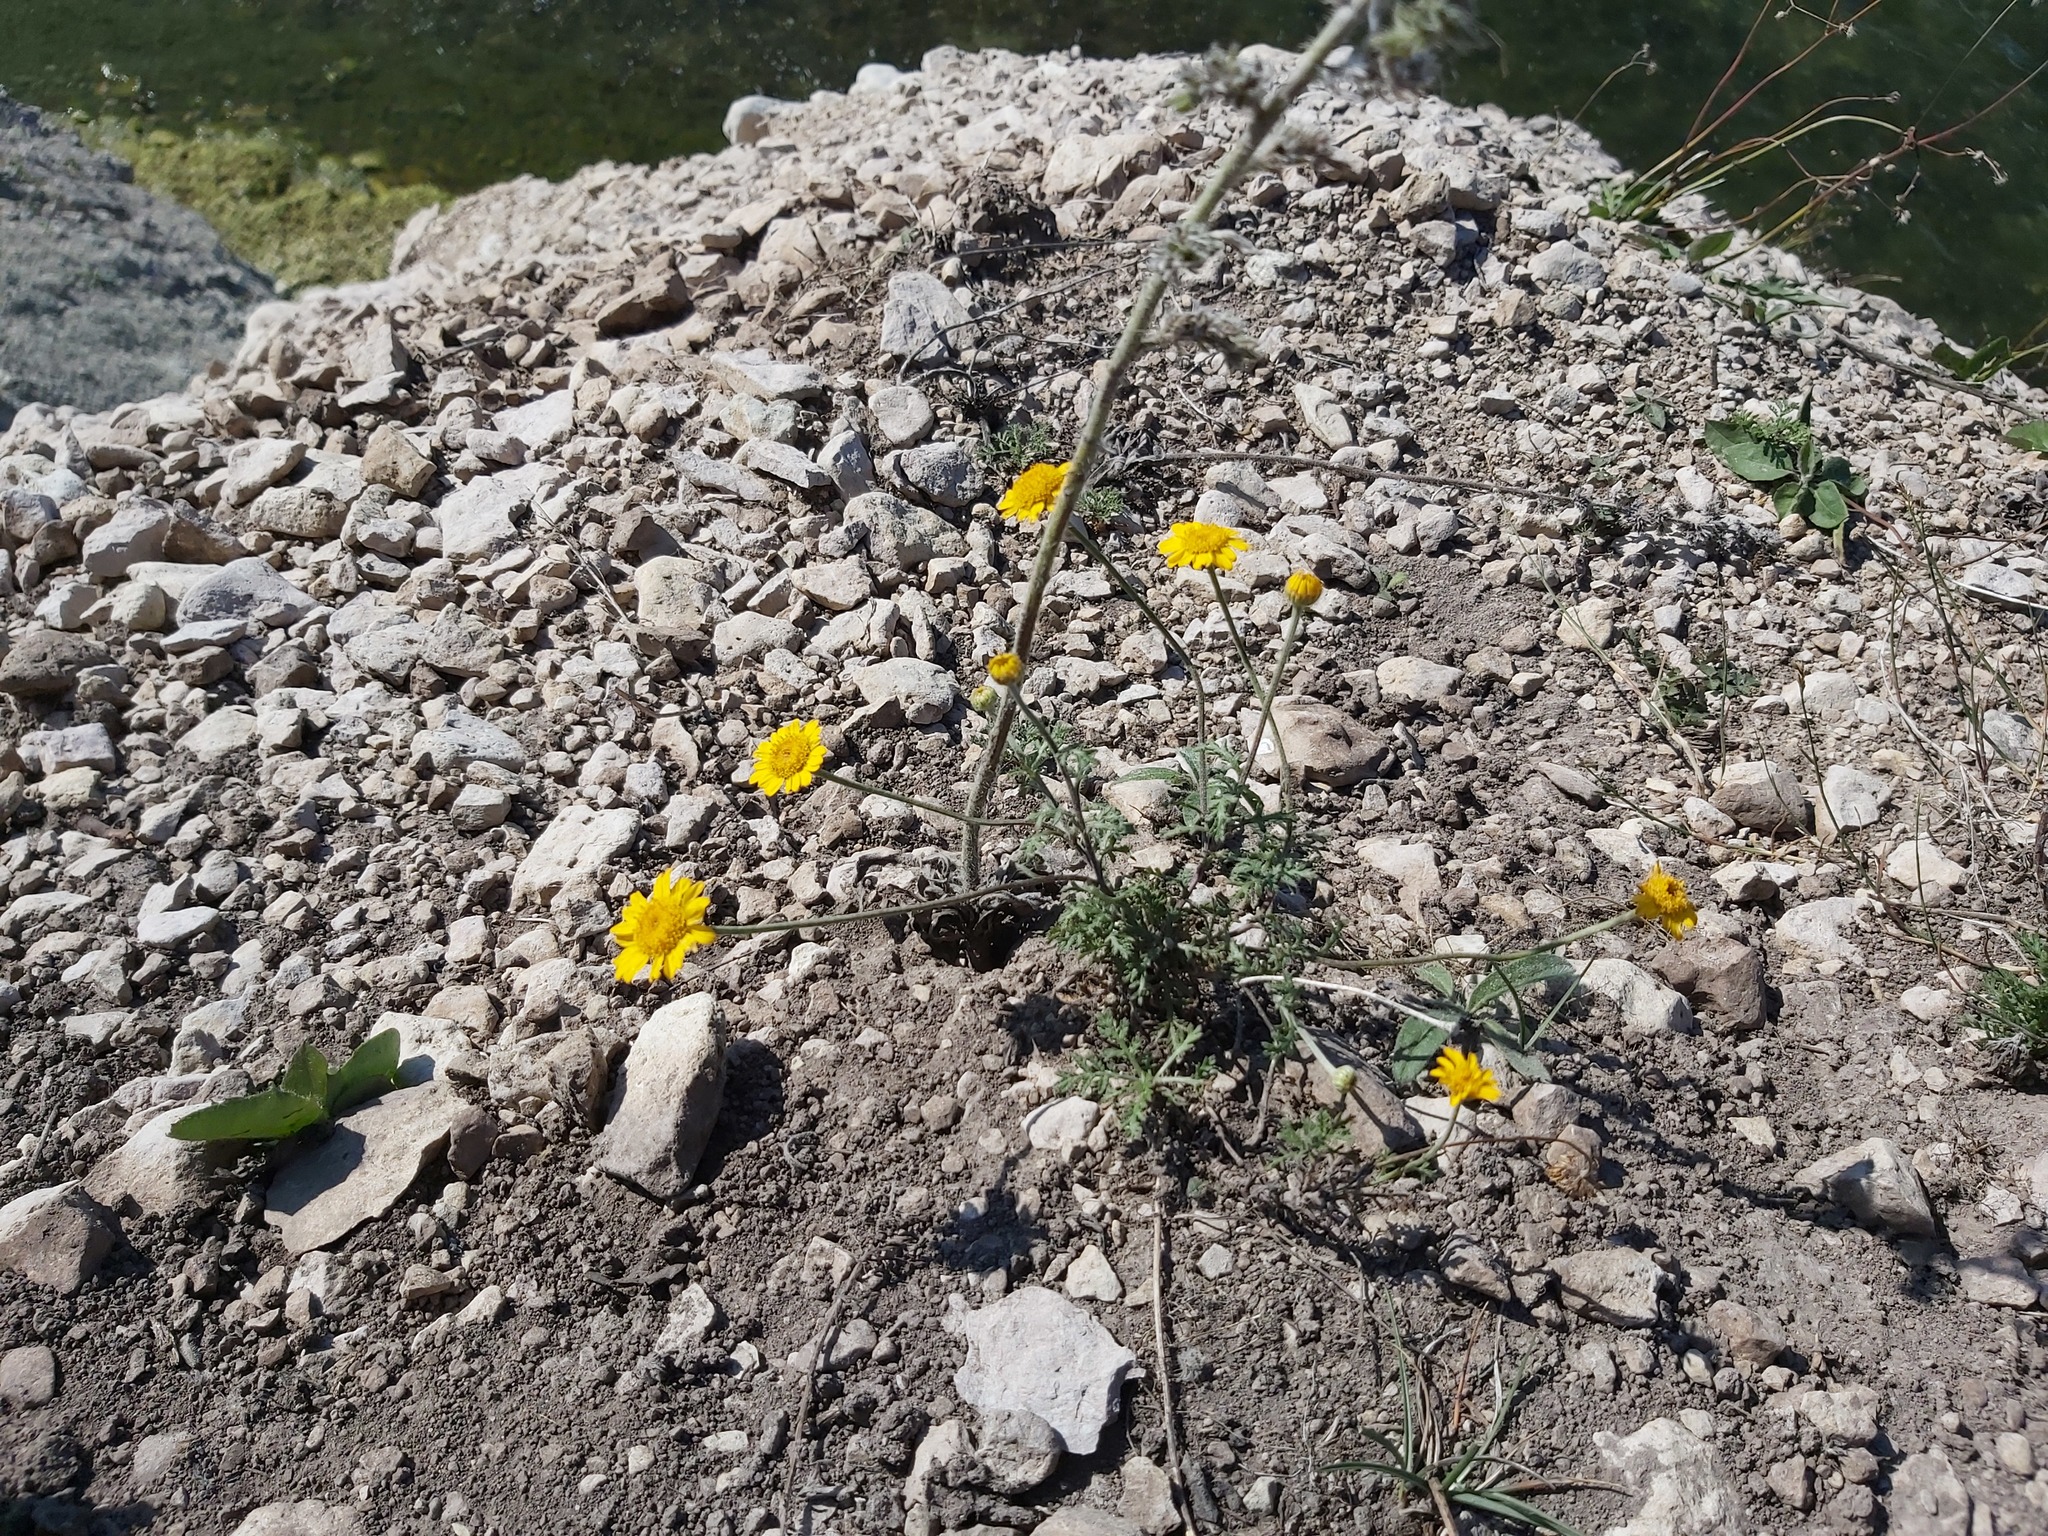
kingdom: Plantae
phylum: Tracheophyta
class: Magnoliopsida
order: Asterales
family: Asteraceae
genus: Cota
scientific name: Cota tinctoria
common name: Golden chamomile
